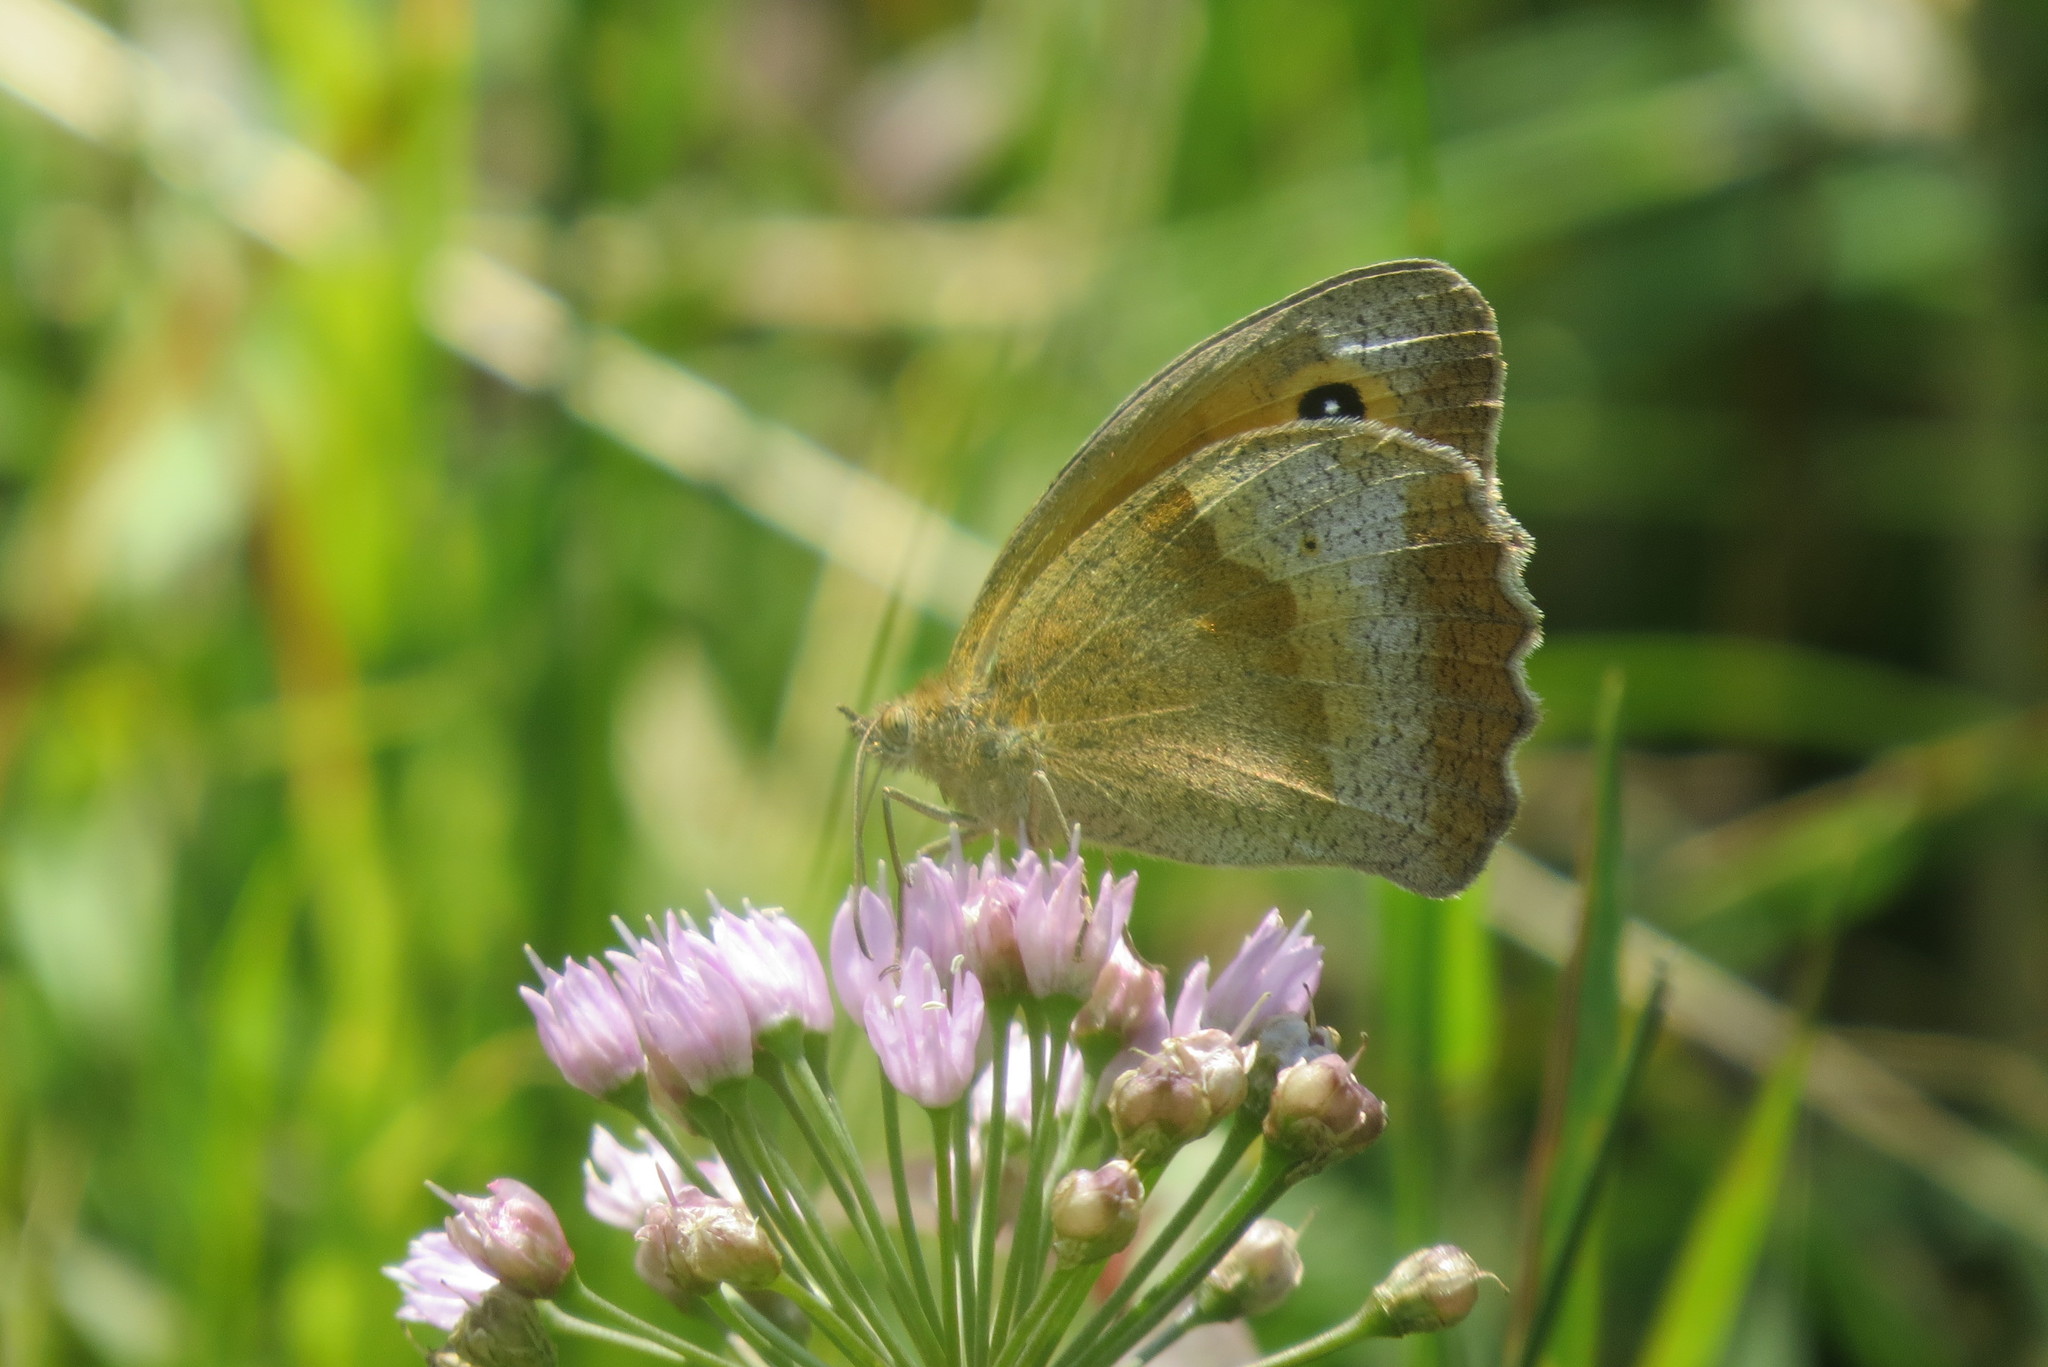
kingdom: Animalia
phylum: Arthropoda
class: Insecta
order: Lepidoptera
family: Nymphalidae
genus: Maniola
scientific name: Maniola jurtina
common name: Meadow brown
